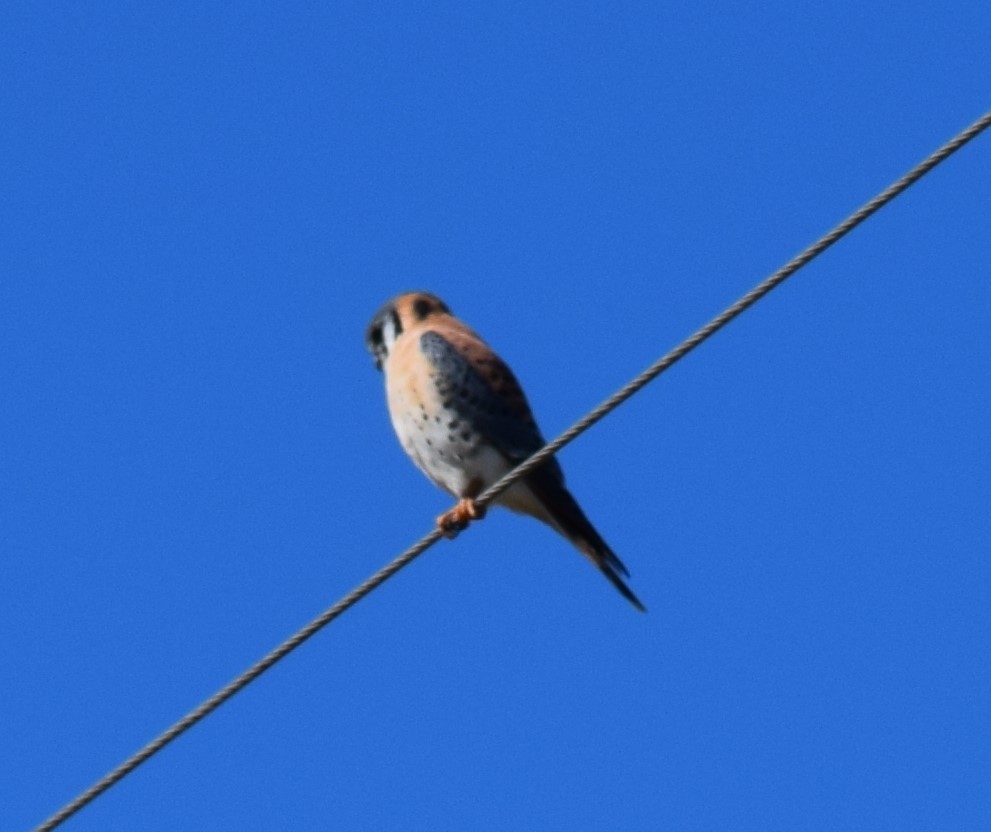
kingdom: Animalia
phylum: Chordata
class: Aves
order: Falconiformes
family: Falconidae
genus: Falco
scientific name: Falco sparverius
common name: American kestrel
